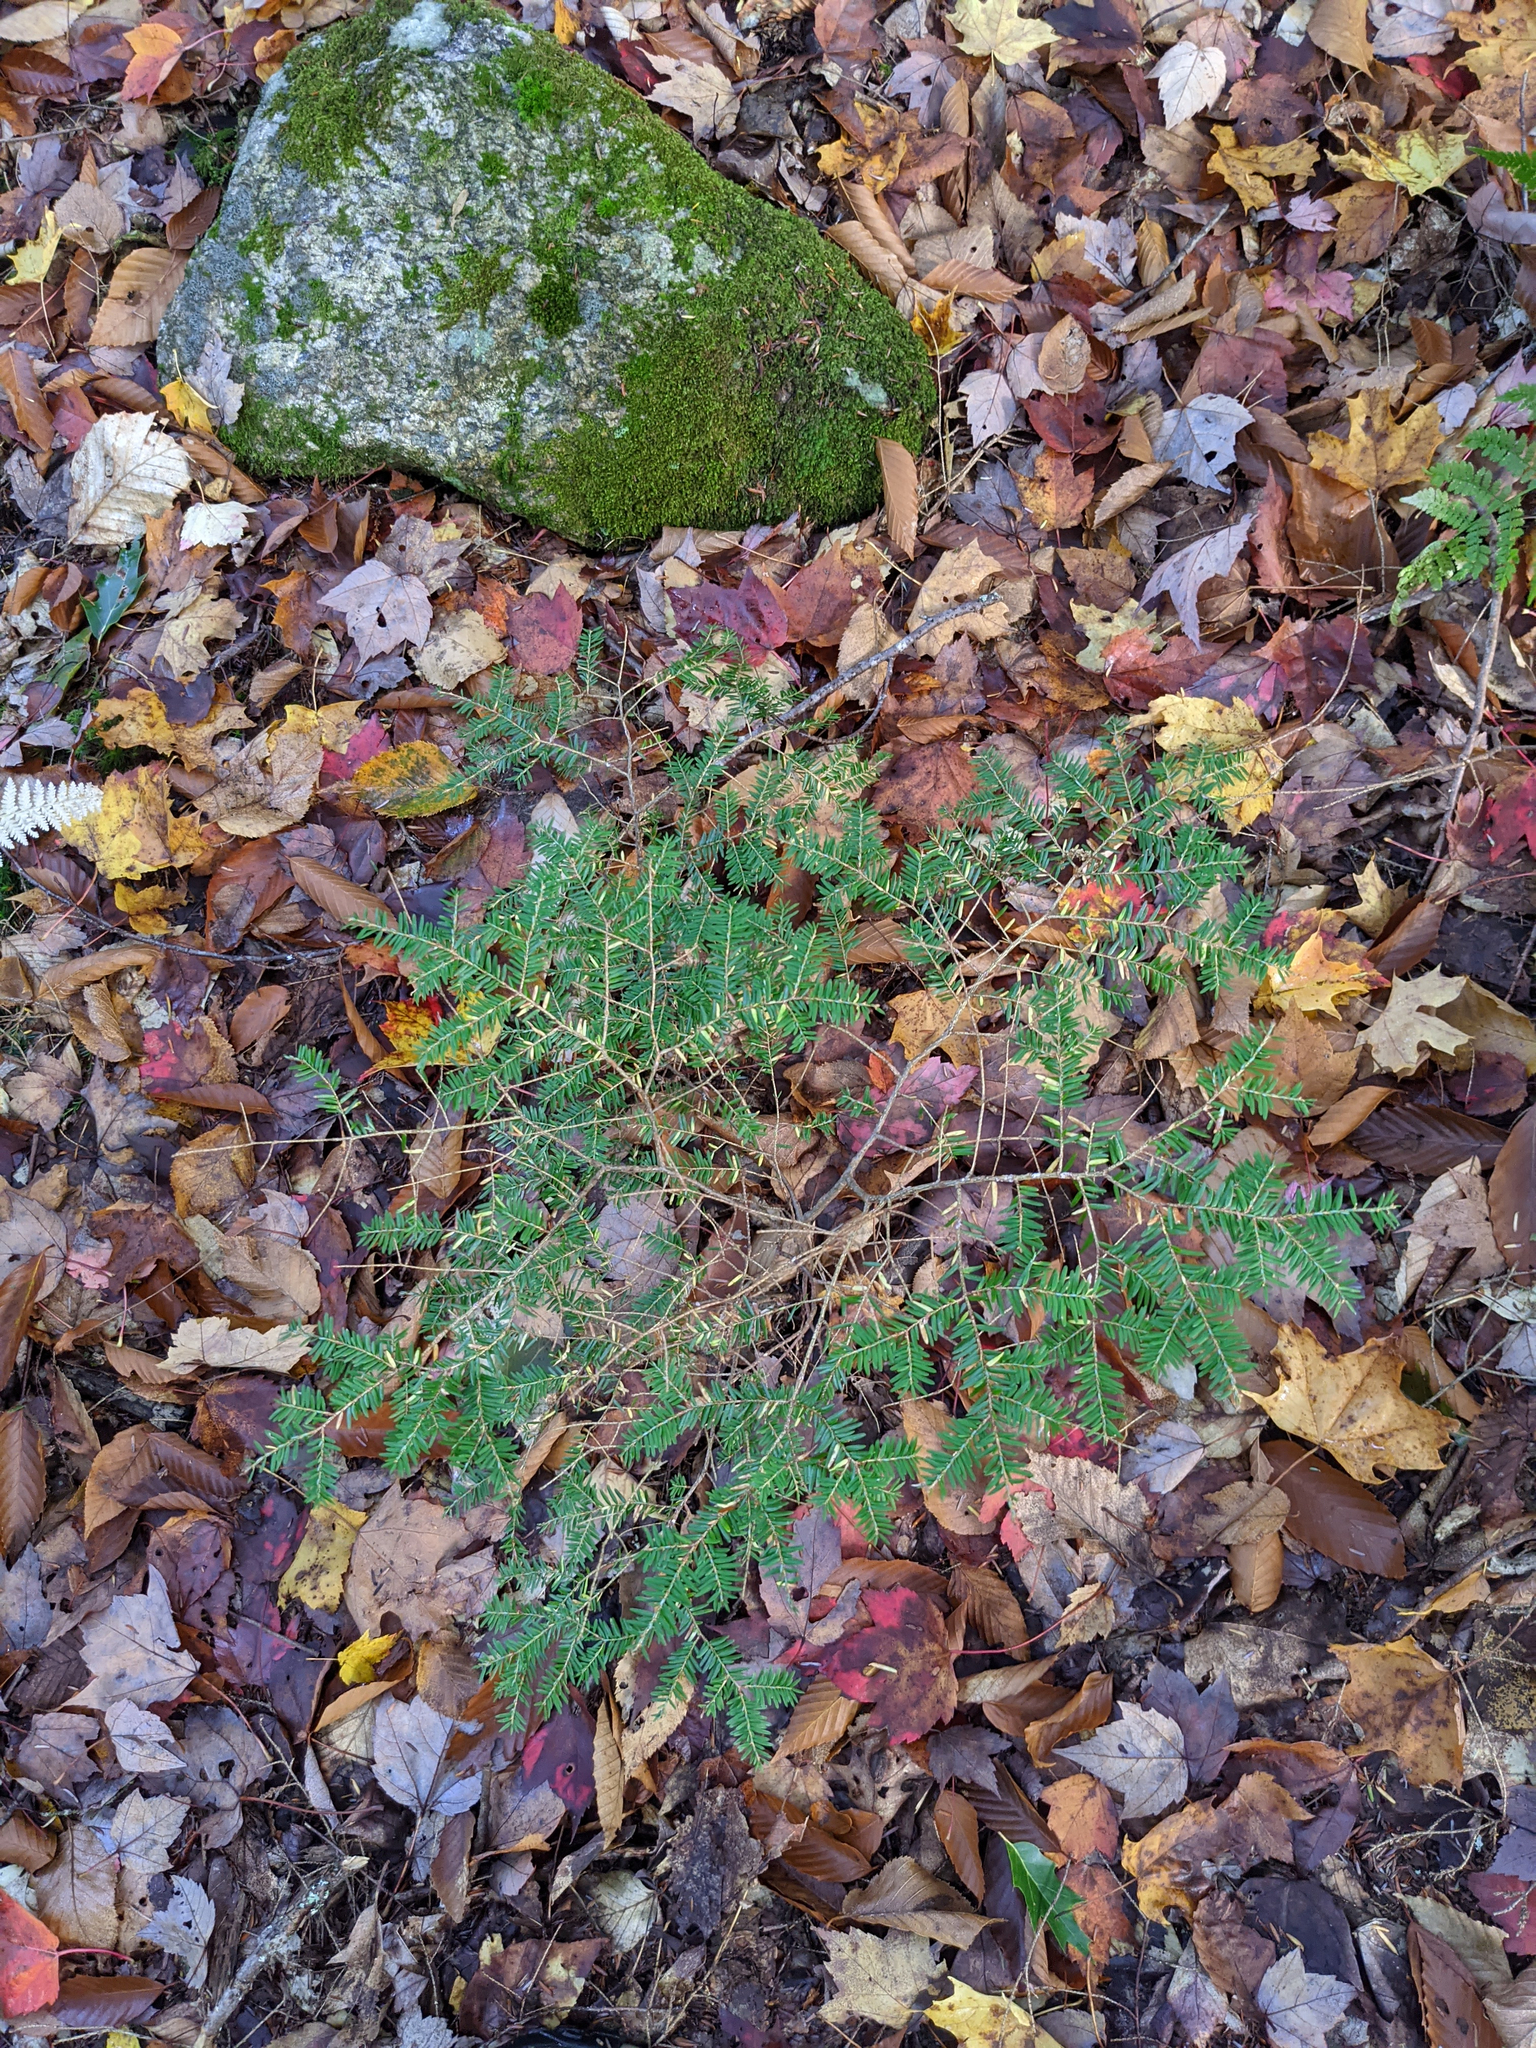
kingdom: Plantae
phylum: Tracheophyta
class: Pinopsida
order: Pinales
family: Pinaceae
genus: Tsuga
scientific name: Tsuga canadensis
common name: Eastern hemlock
